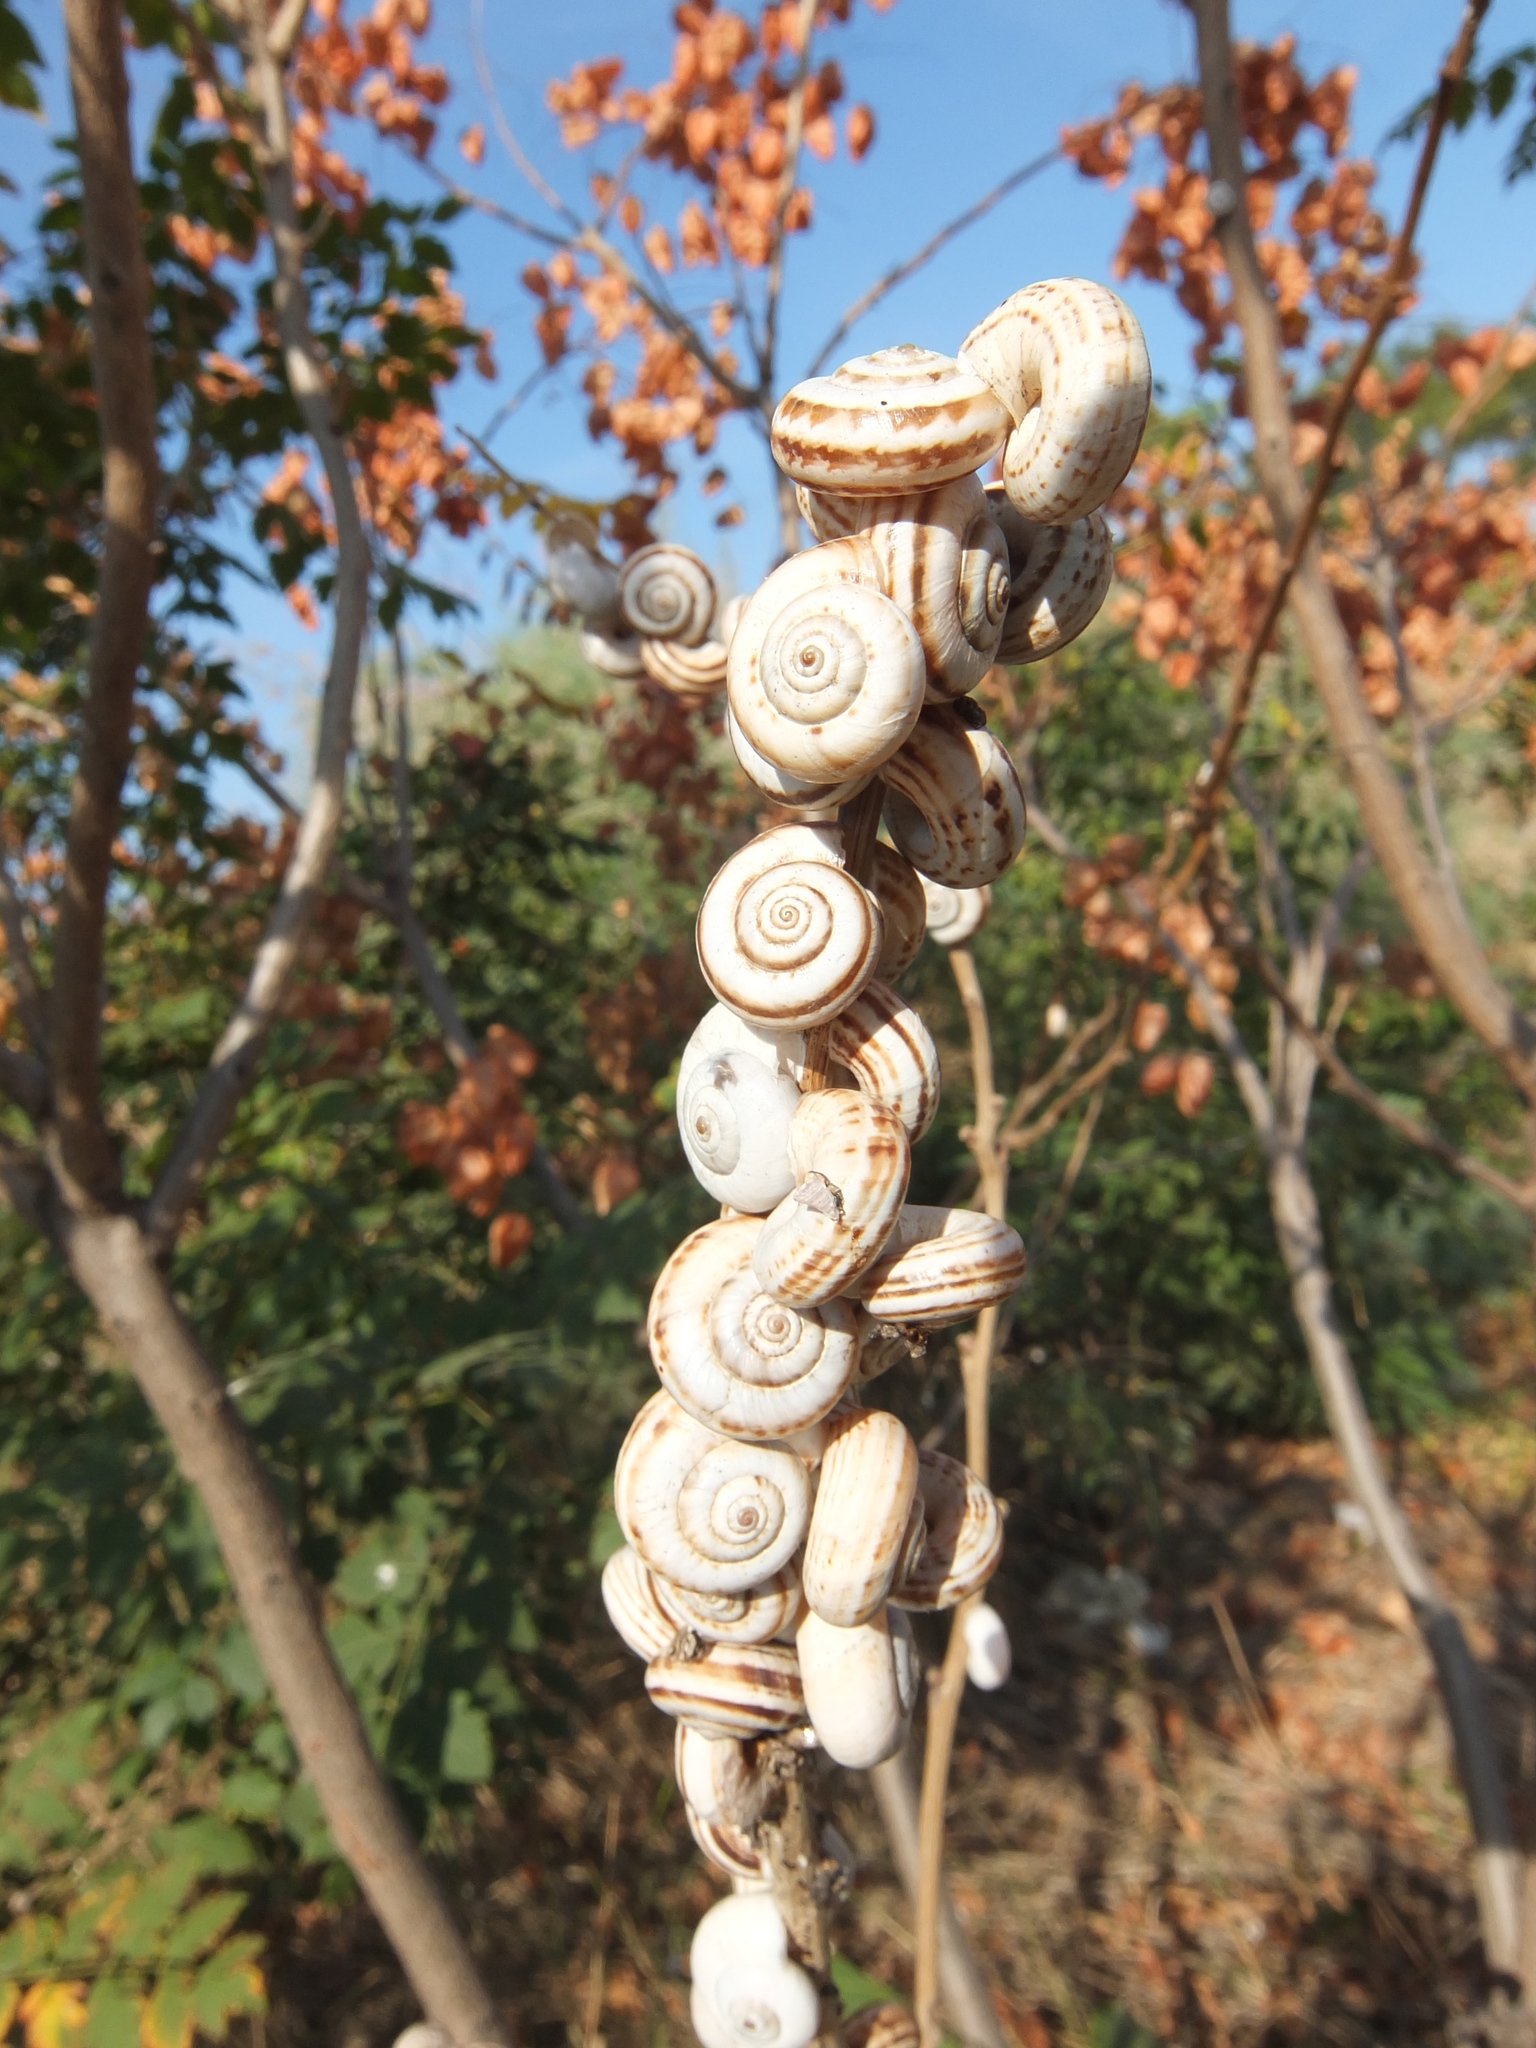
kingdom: Animalia
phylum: Mollusca
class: Gastropoda
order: Stylommatophora
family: Geomitridae
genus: Xeropicta
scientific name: Xeropicta derbentina
